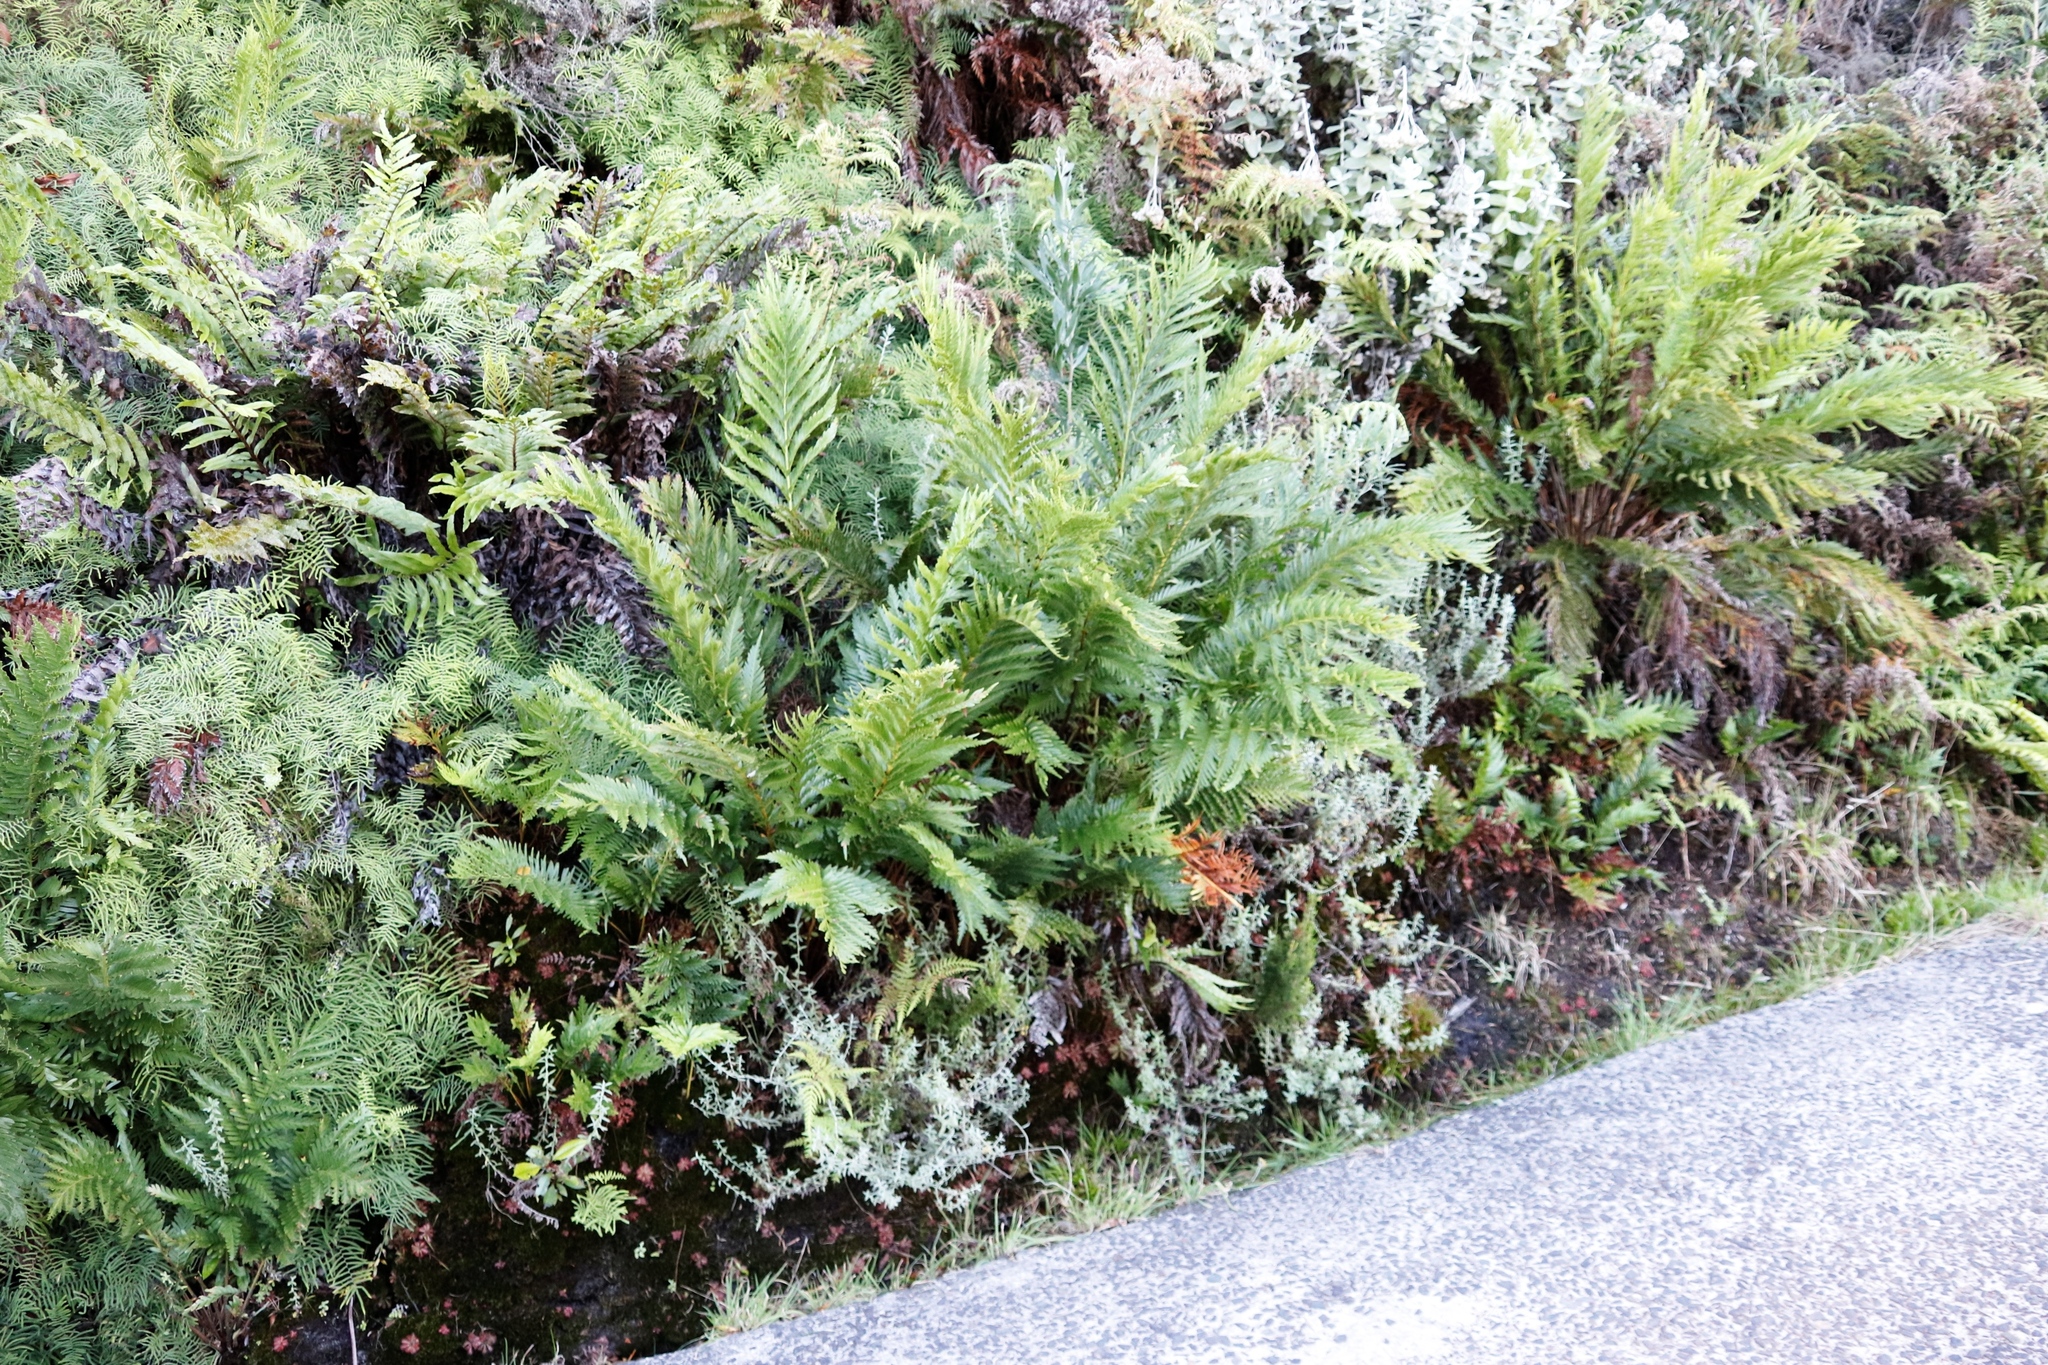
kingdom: Plantae
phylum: Tracheophyta
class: Polypodiopsida
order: Osmundales
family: Osmundaceae
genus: Todea
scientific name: Todea barbara
